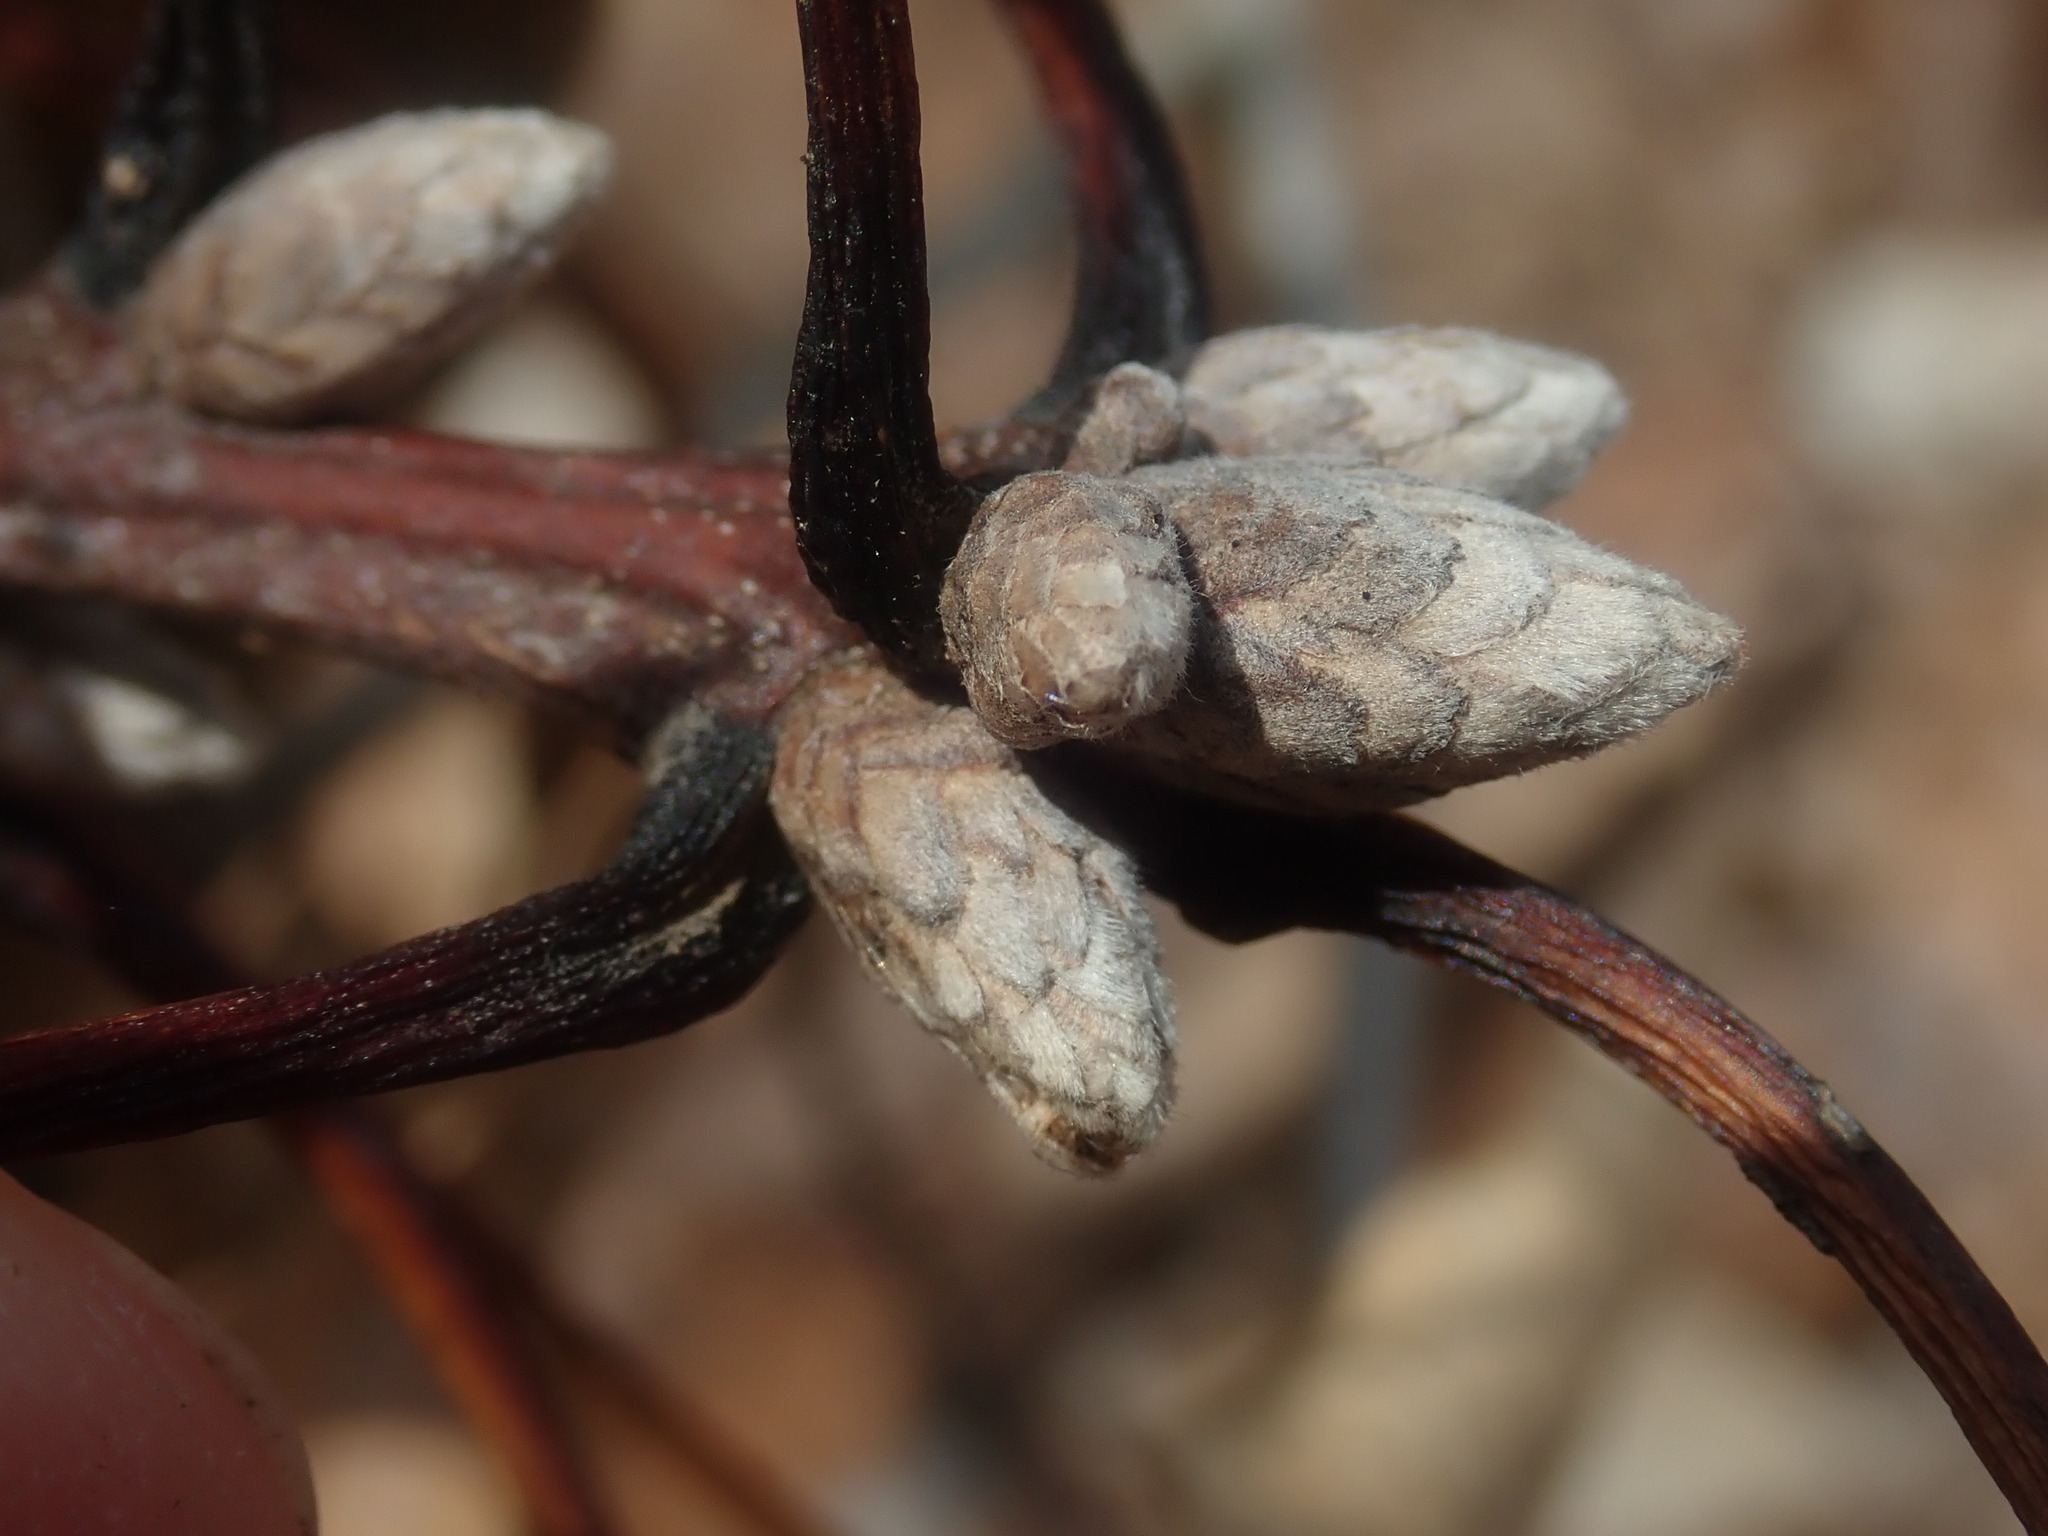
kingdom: Plantae
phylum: Tracheophyta
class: Magnoliopsida
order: Fagales
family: Fagaceae
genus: Quercus
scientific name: Quercus velutina
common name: Black oak
